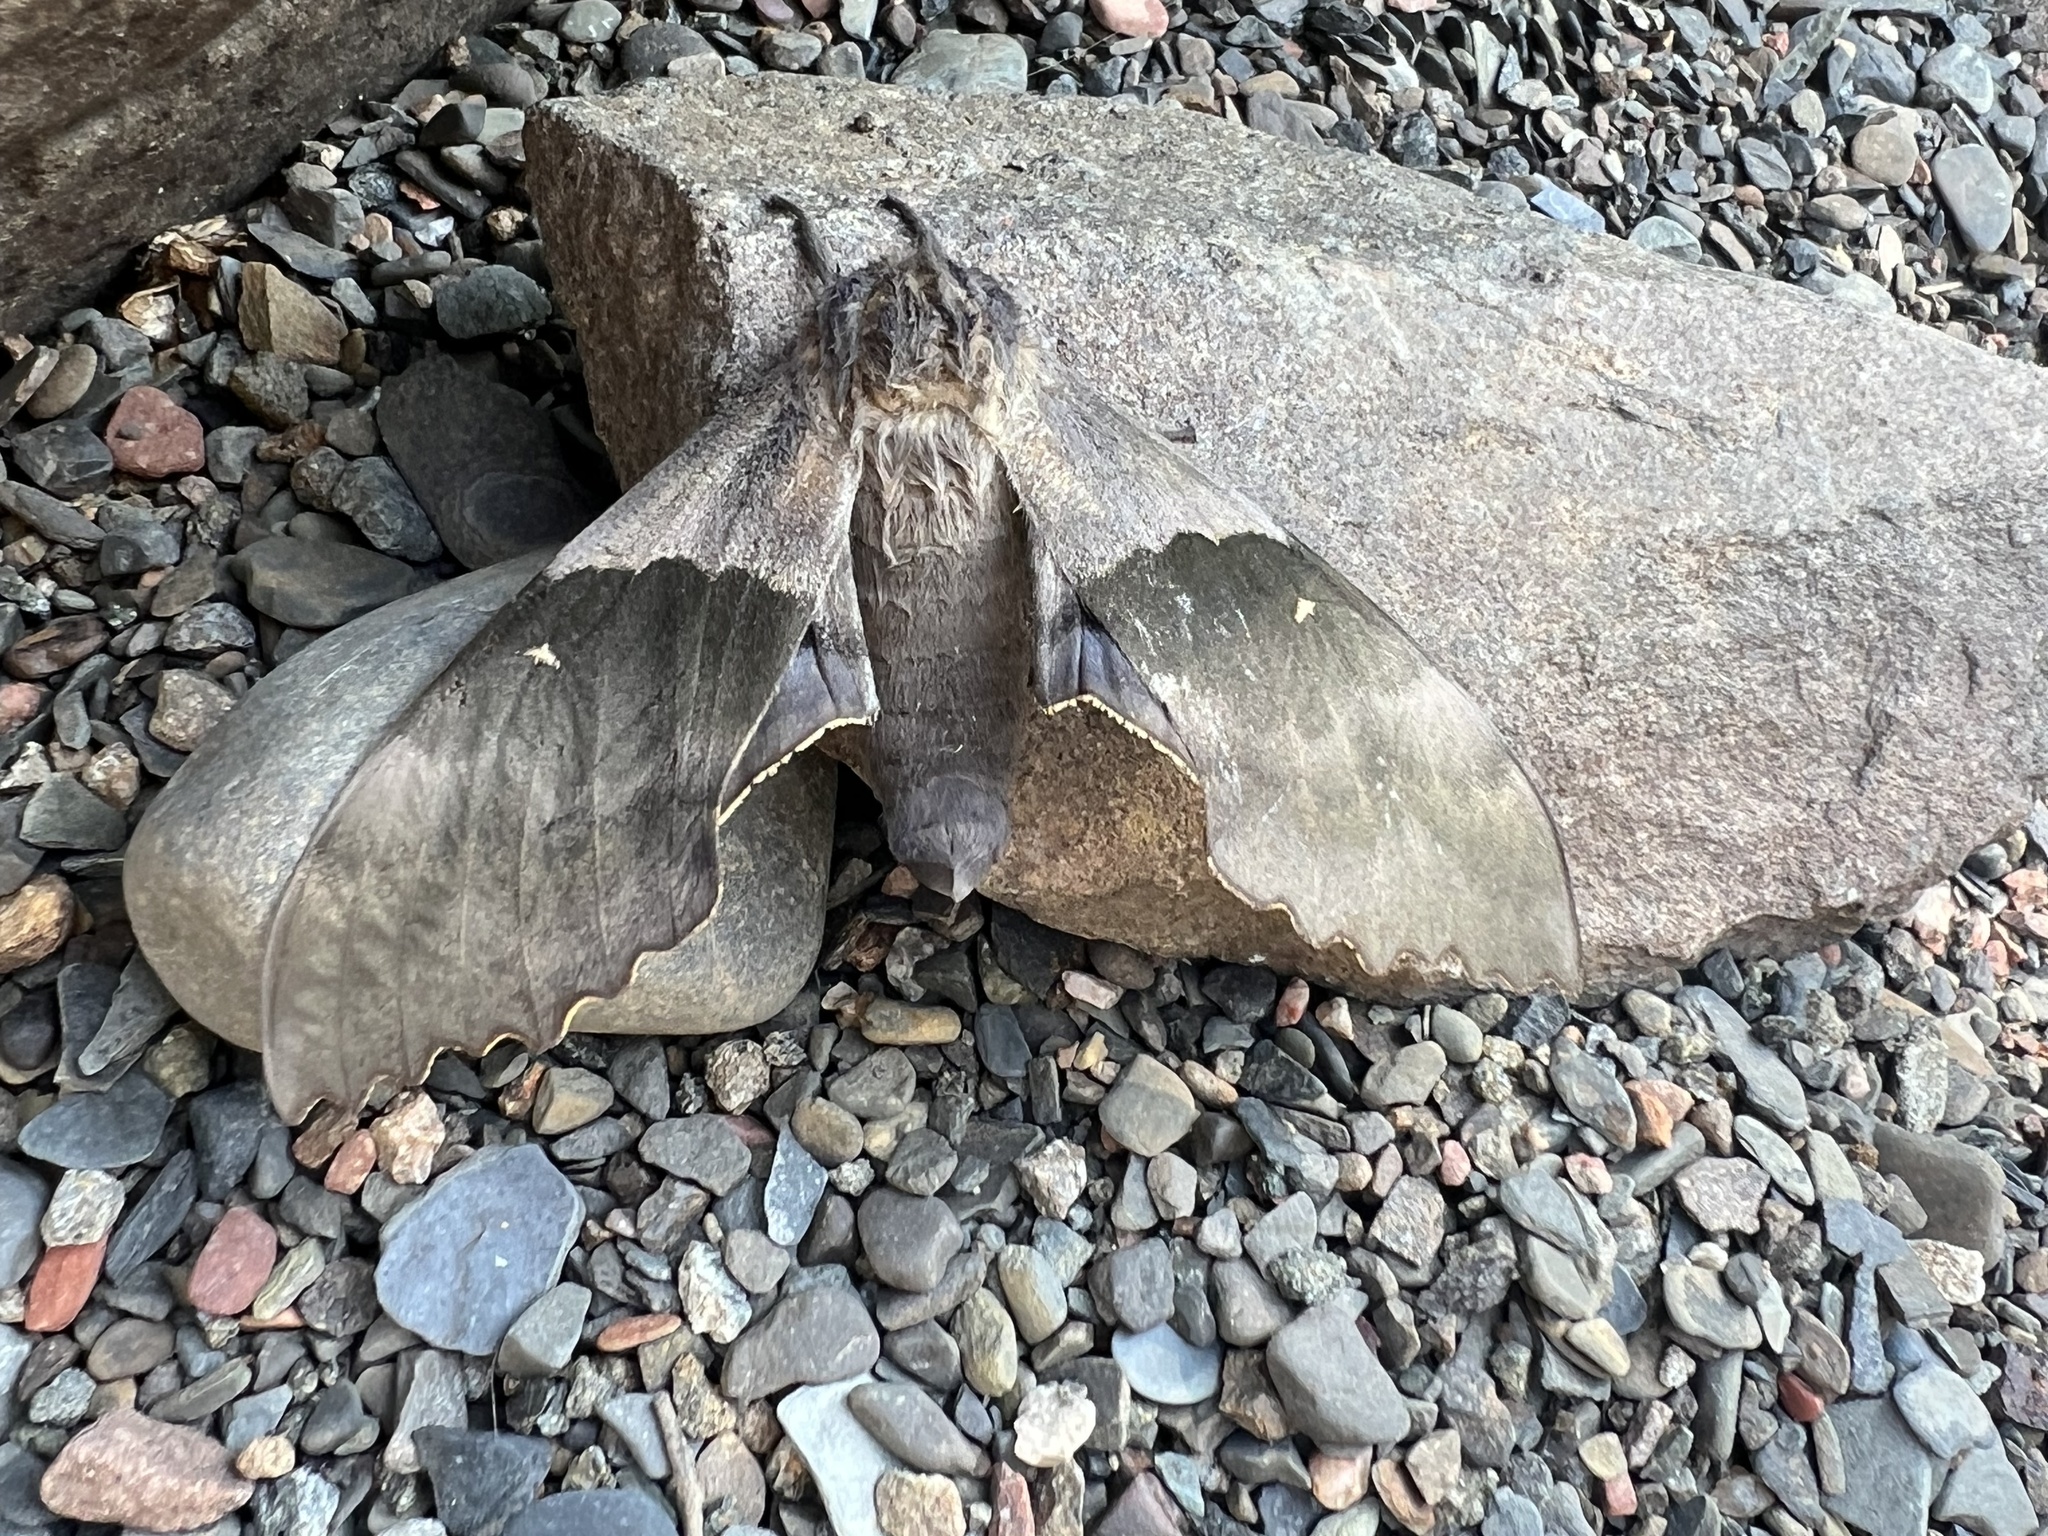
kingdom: Animalia
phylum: Arthropoda
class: Insecta
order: Lepidoptera
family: Sphingidae
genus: Pachysphinx
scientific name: Pachysphinx modesta
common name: Big poplar sphinx
